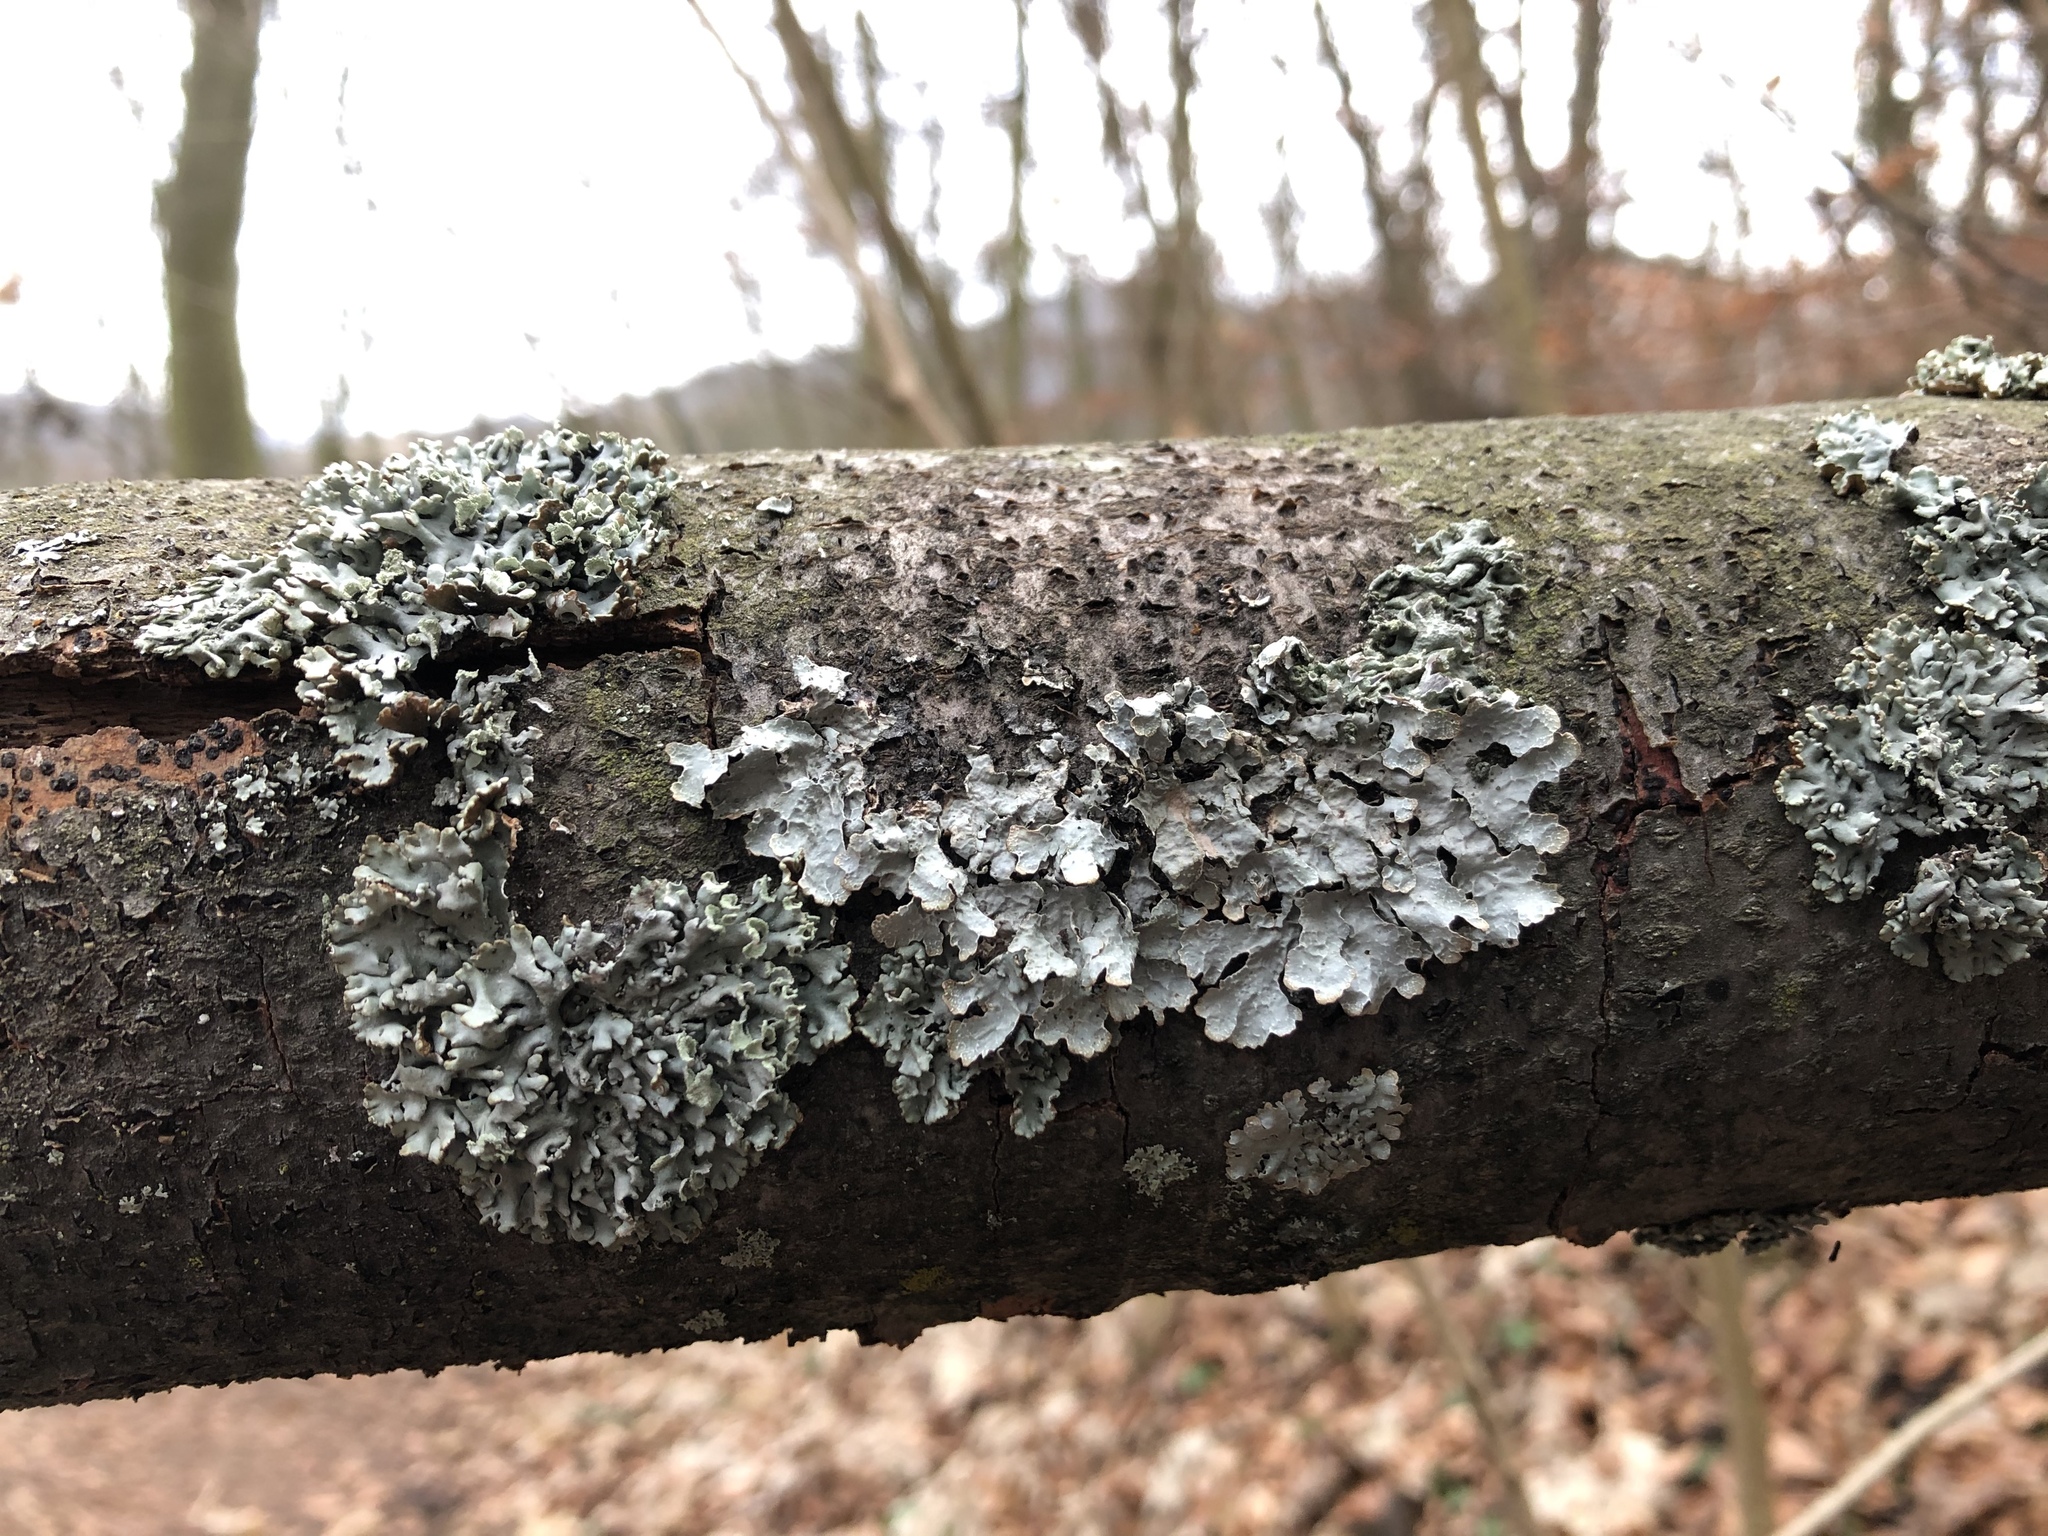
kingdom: Fungi
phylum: Ascomycota
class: Lecanoromycetes
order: Lecanorales
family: Parmeliaceae
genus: Parmelia
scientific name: Parmelia sulcata
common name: Netted shield lichen
